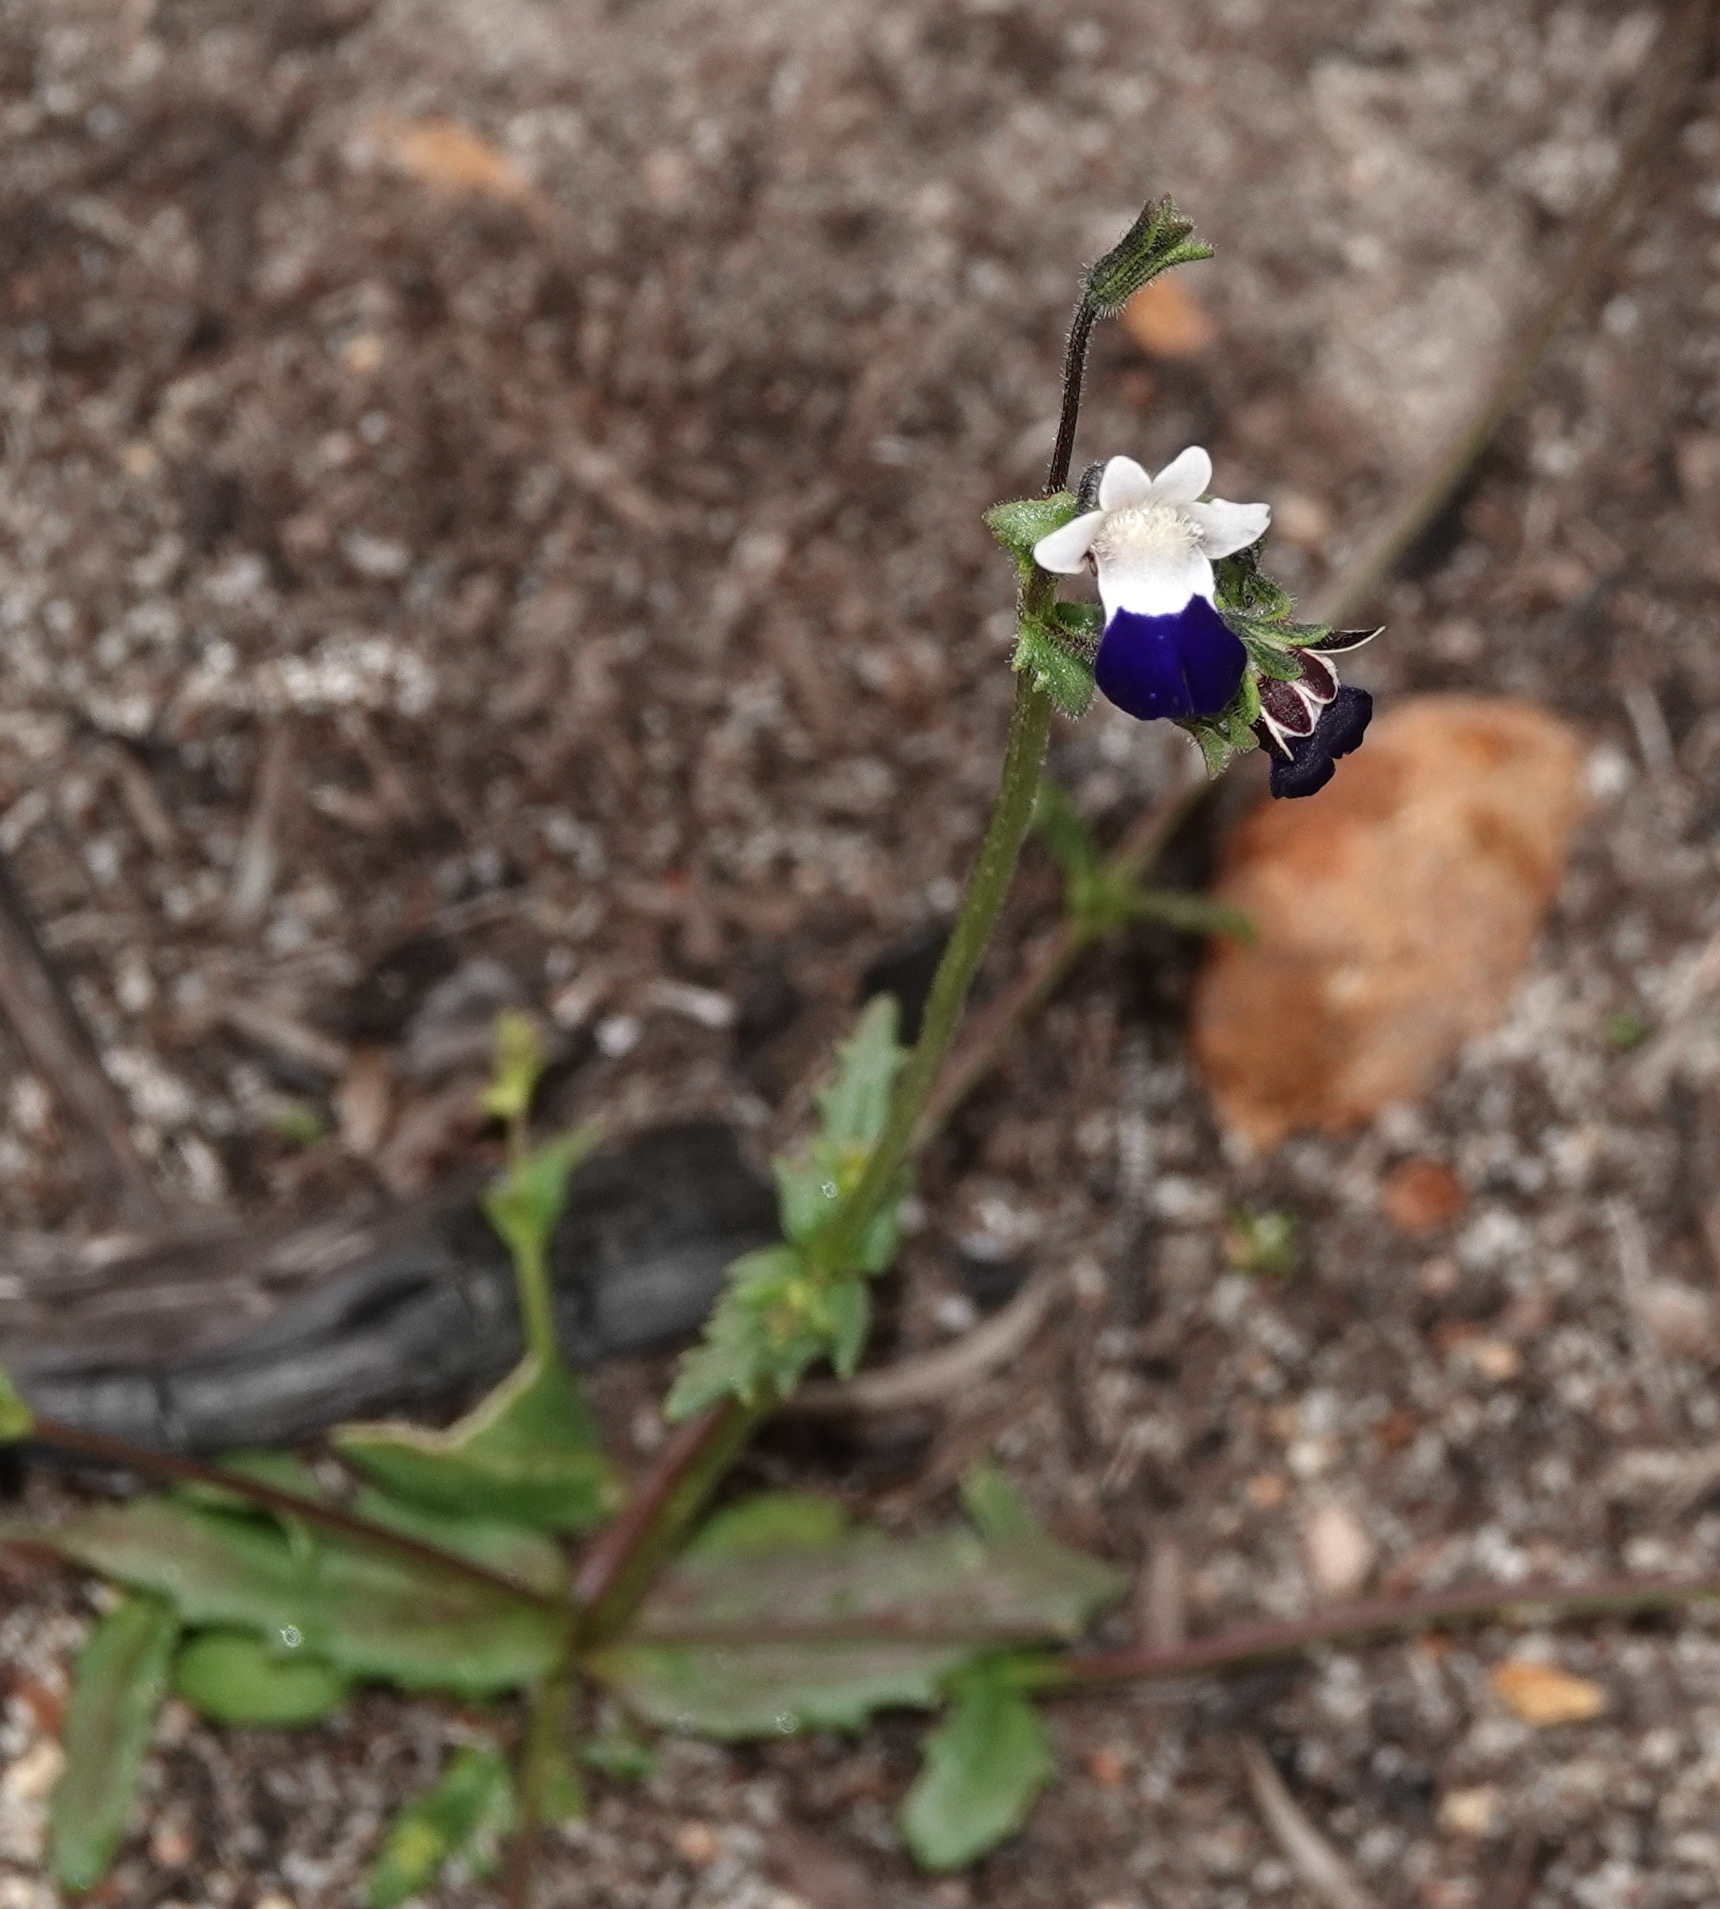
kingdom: Plantae
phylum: Tracheophyta
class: Magnoliopsida
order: Lamiales
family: Scrophulariaceae
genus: Nemesia
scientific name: Nemesia barbata
